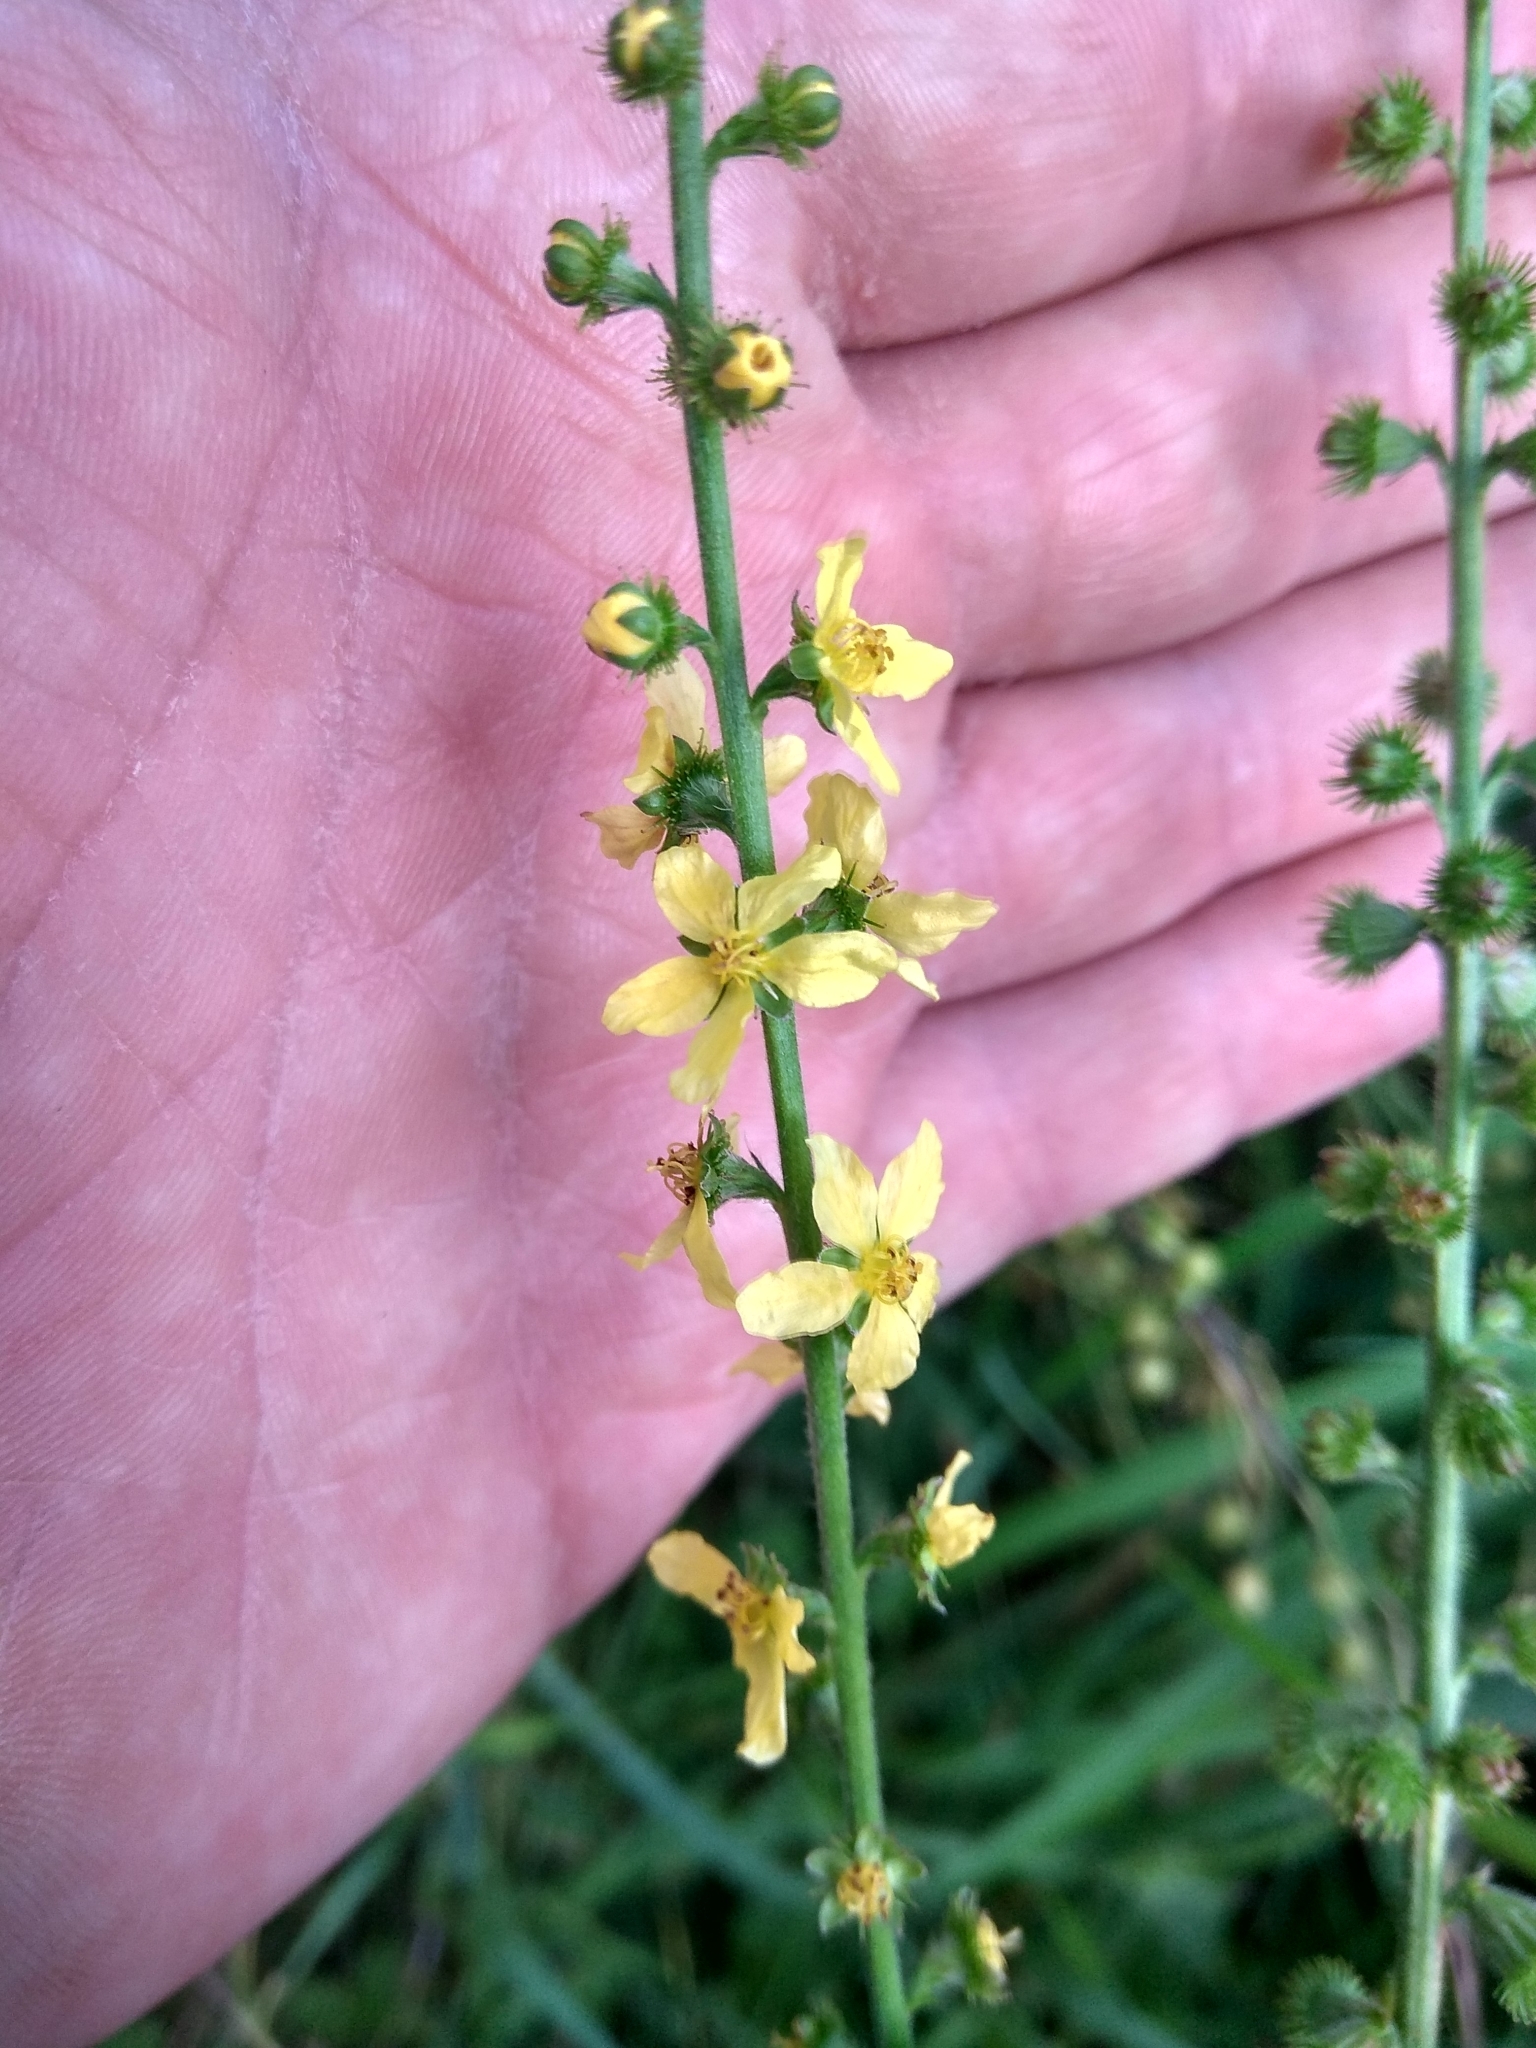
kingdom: Plantae
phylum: Tracheophyta
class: Magnoliopsida
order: Rosales
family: Rosaceae
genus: Agrimonia
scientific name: Agrimonia eupatoria
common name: Agrimony
